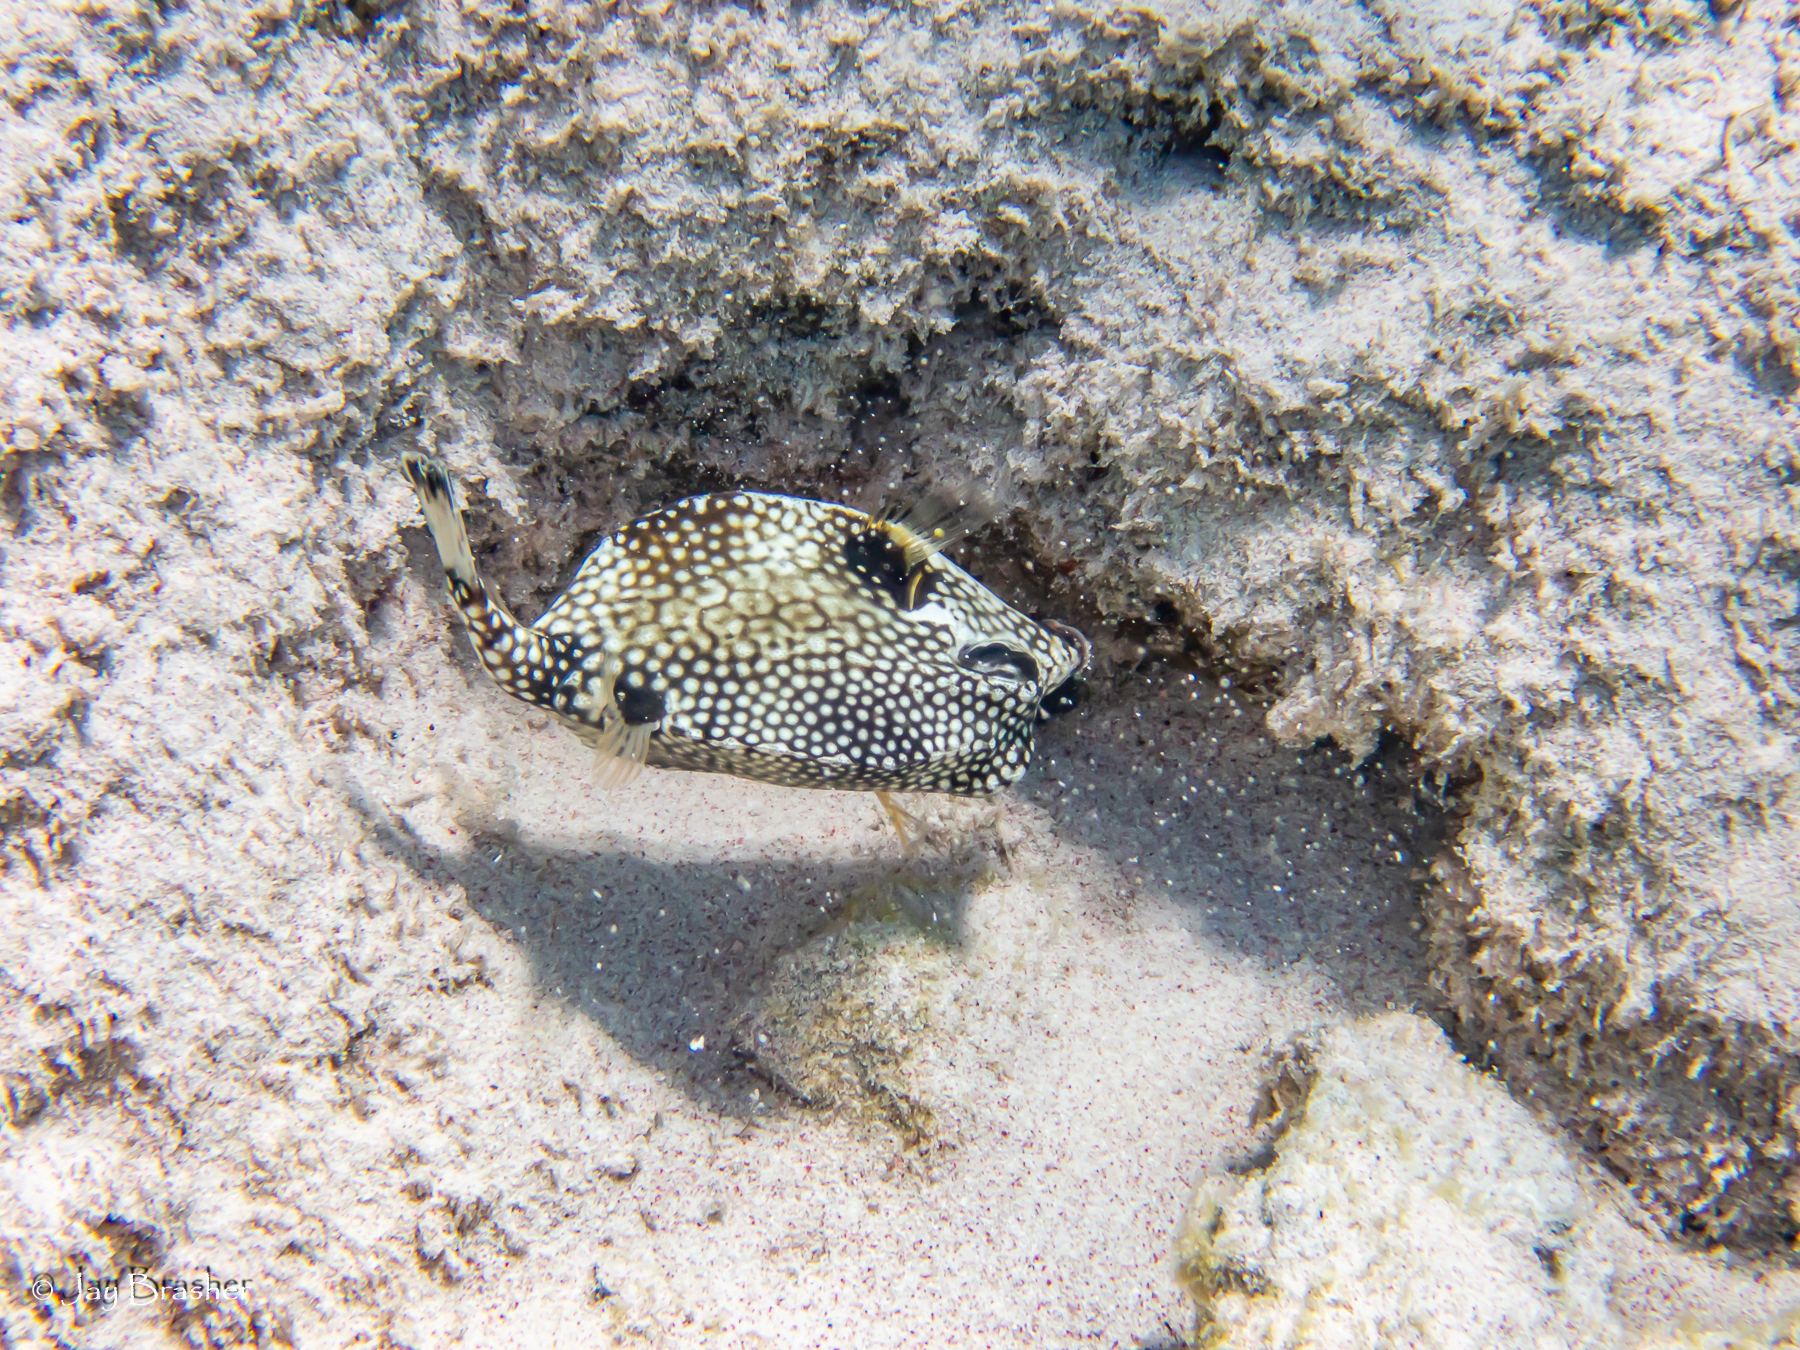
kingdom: Animalia
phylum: Chordata
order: Tetraodontiformes
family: Ostraciidae
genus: Lactophrys
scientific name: Lactophrys triqueter
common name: Smooth trunkfish
